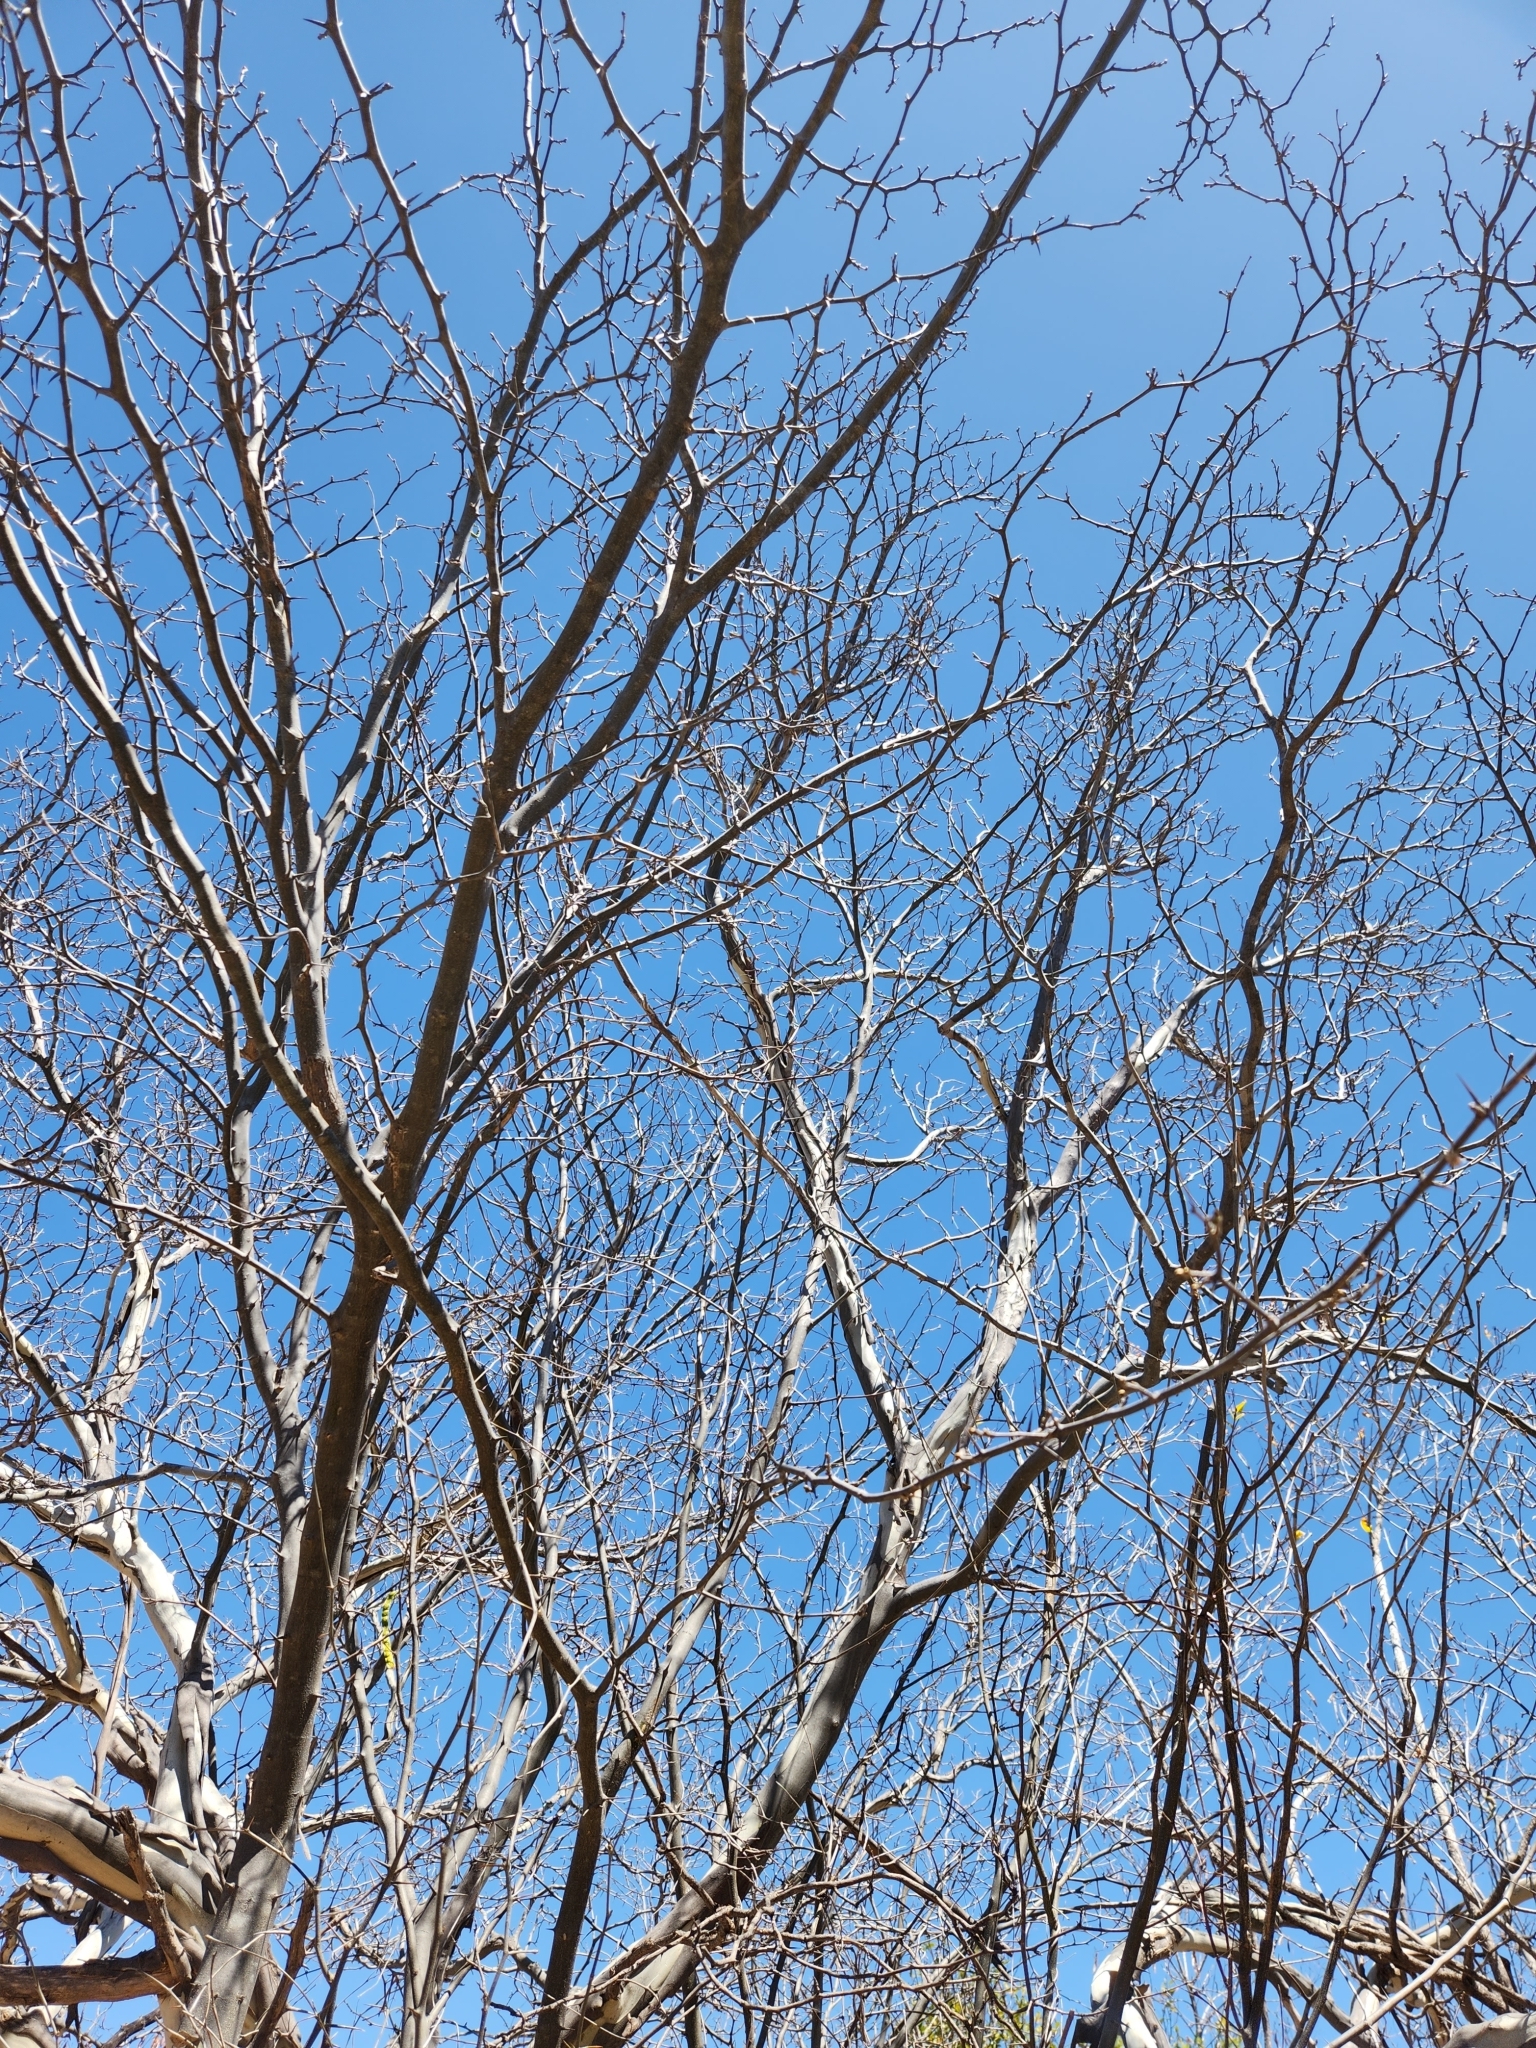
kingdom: Plantae
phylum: Tracheophyta
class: Magnoliopsida
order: Fabales
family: Fabaceae
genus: Chloroleucon
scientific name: Chloroleucon mangense
